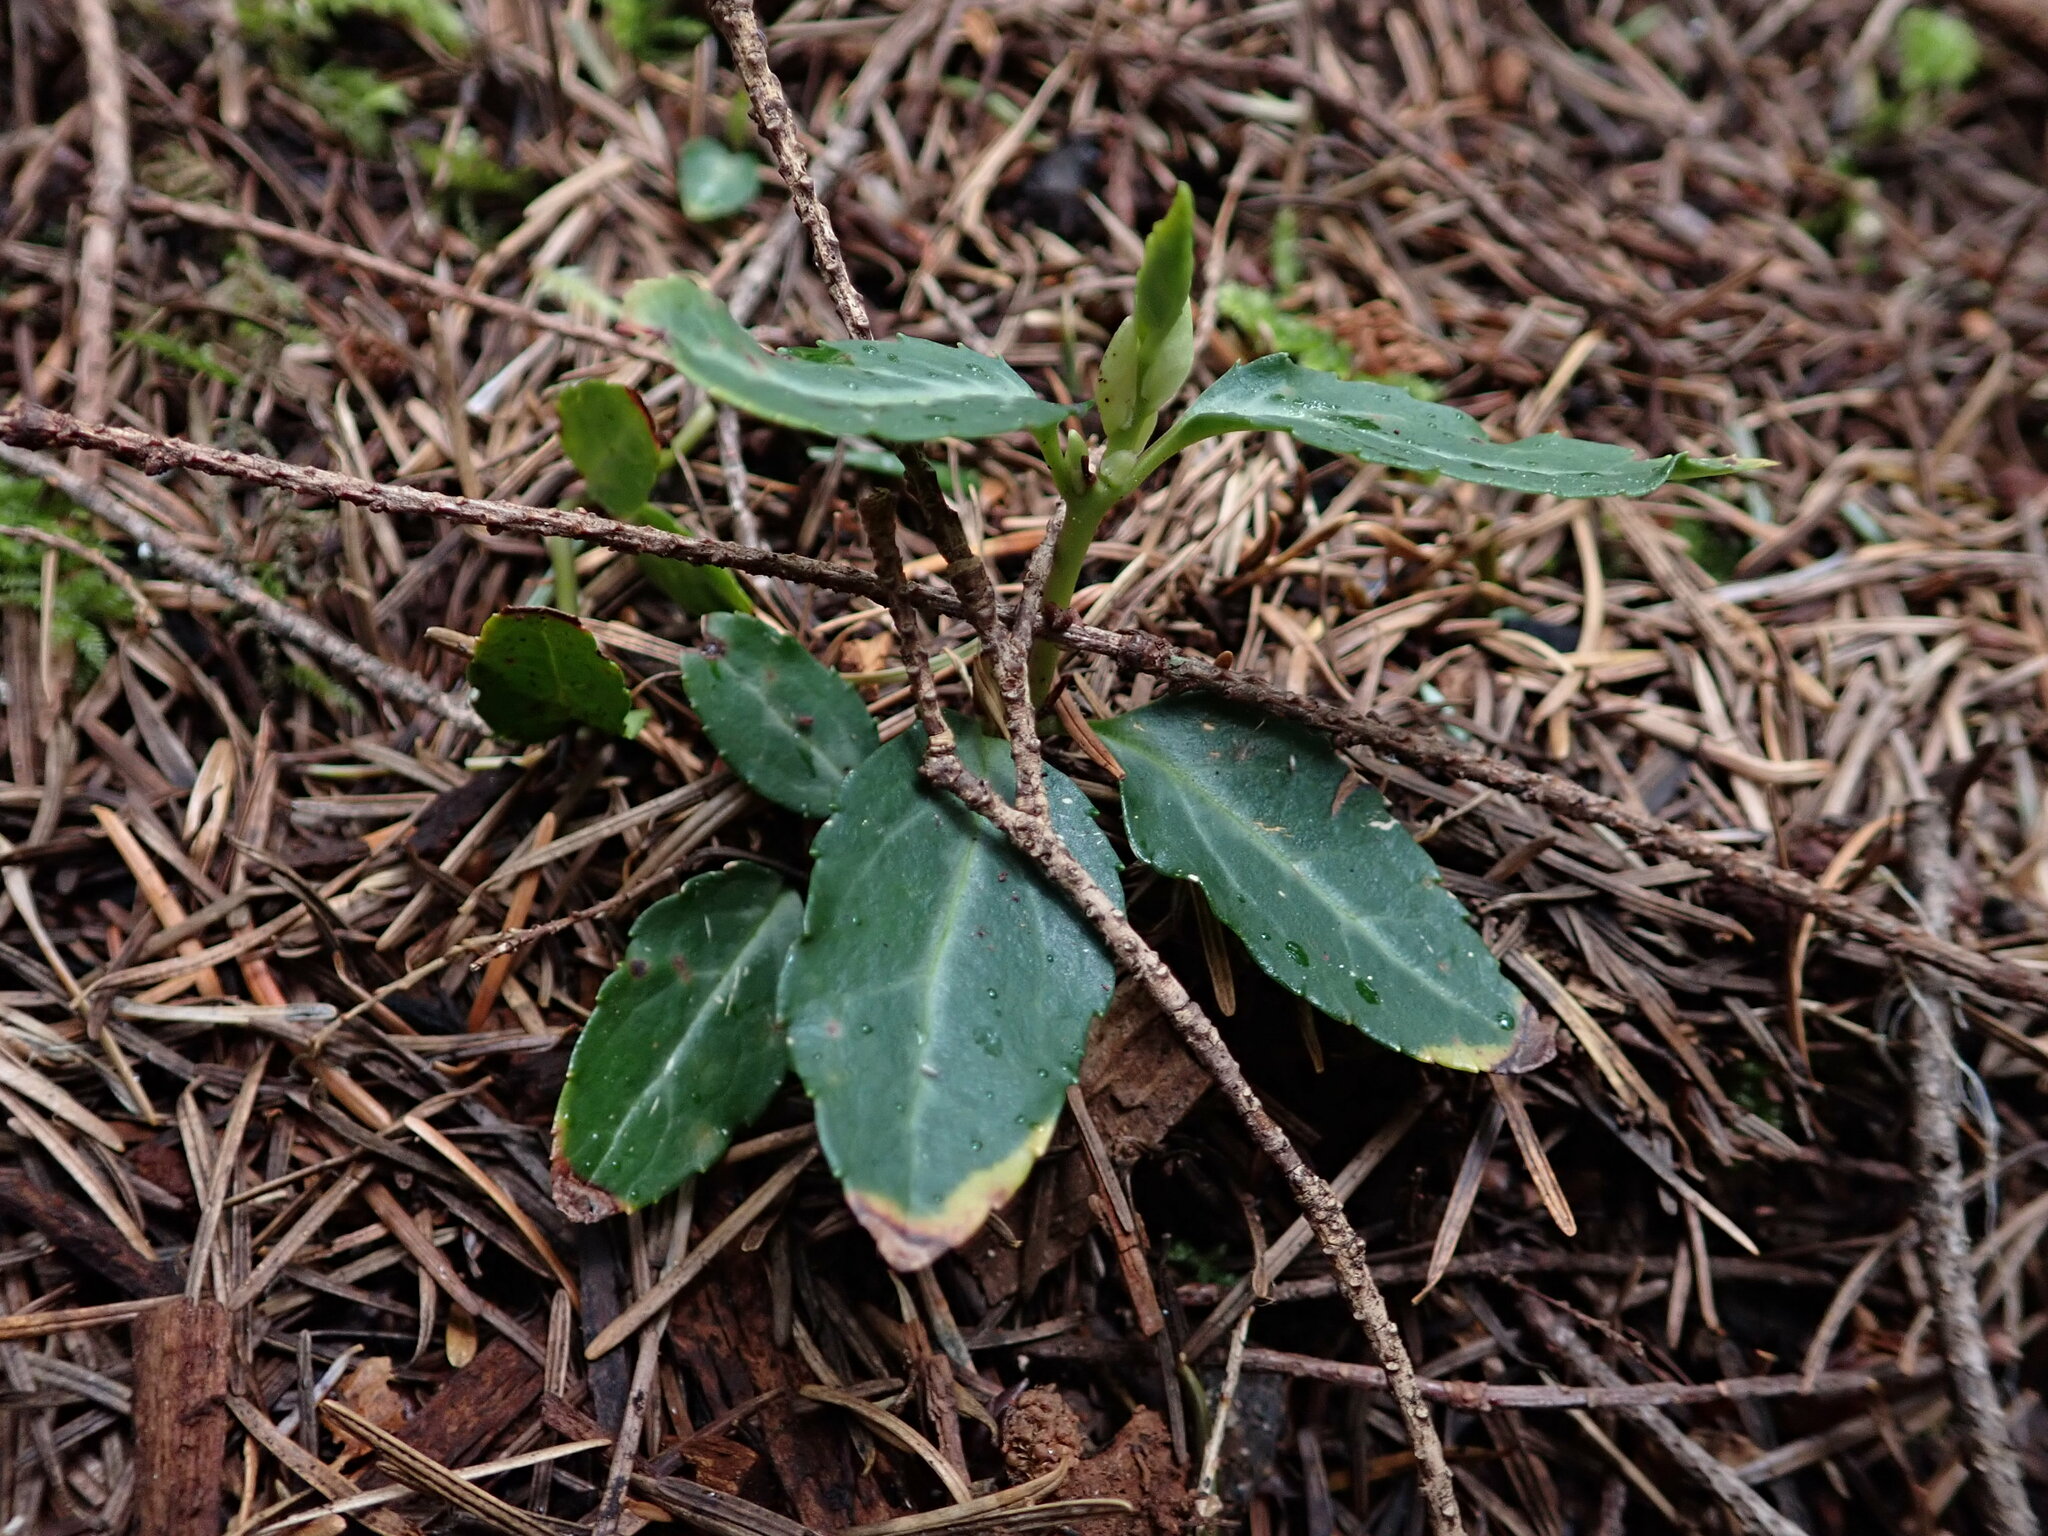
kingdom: Plantae
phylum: Tracheophyta
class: Magnoliopsida
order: Ericales
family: Ericaceae
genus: Chimaphila
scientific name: Chimaphila menziesii
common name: Menzies' pipsissewa
